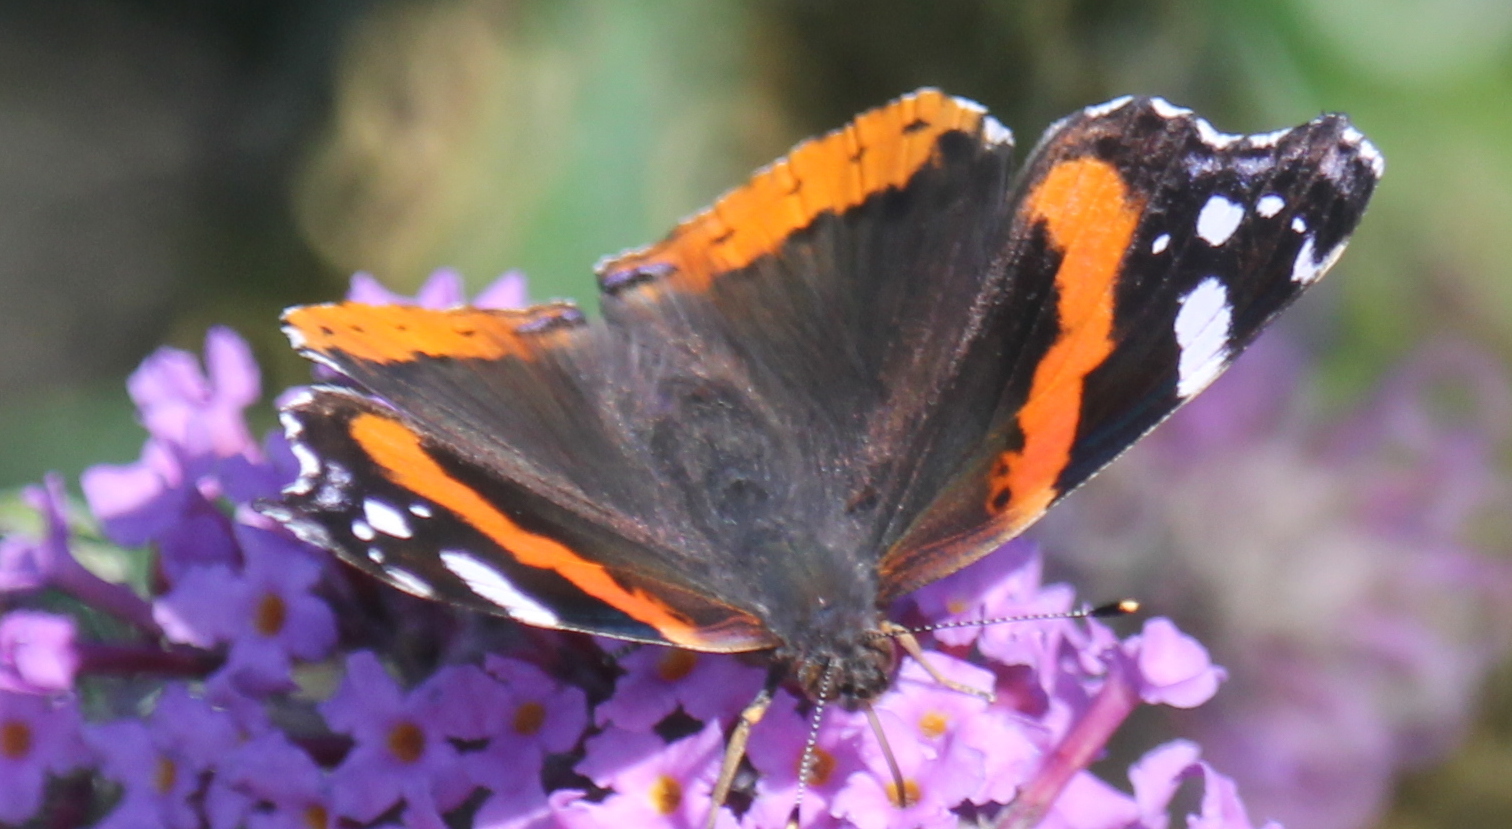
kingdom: Animalia
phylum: Arthropoda
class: Insecta
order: Lepidoptera
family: Nymphalidae
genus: Vanessa
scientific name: Vanessa atalanta
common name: Red admiral
